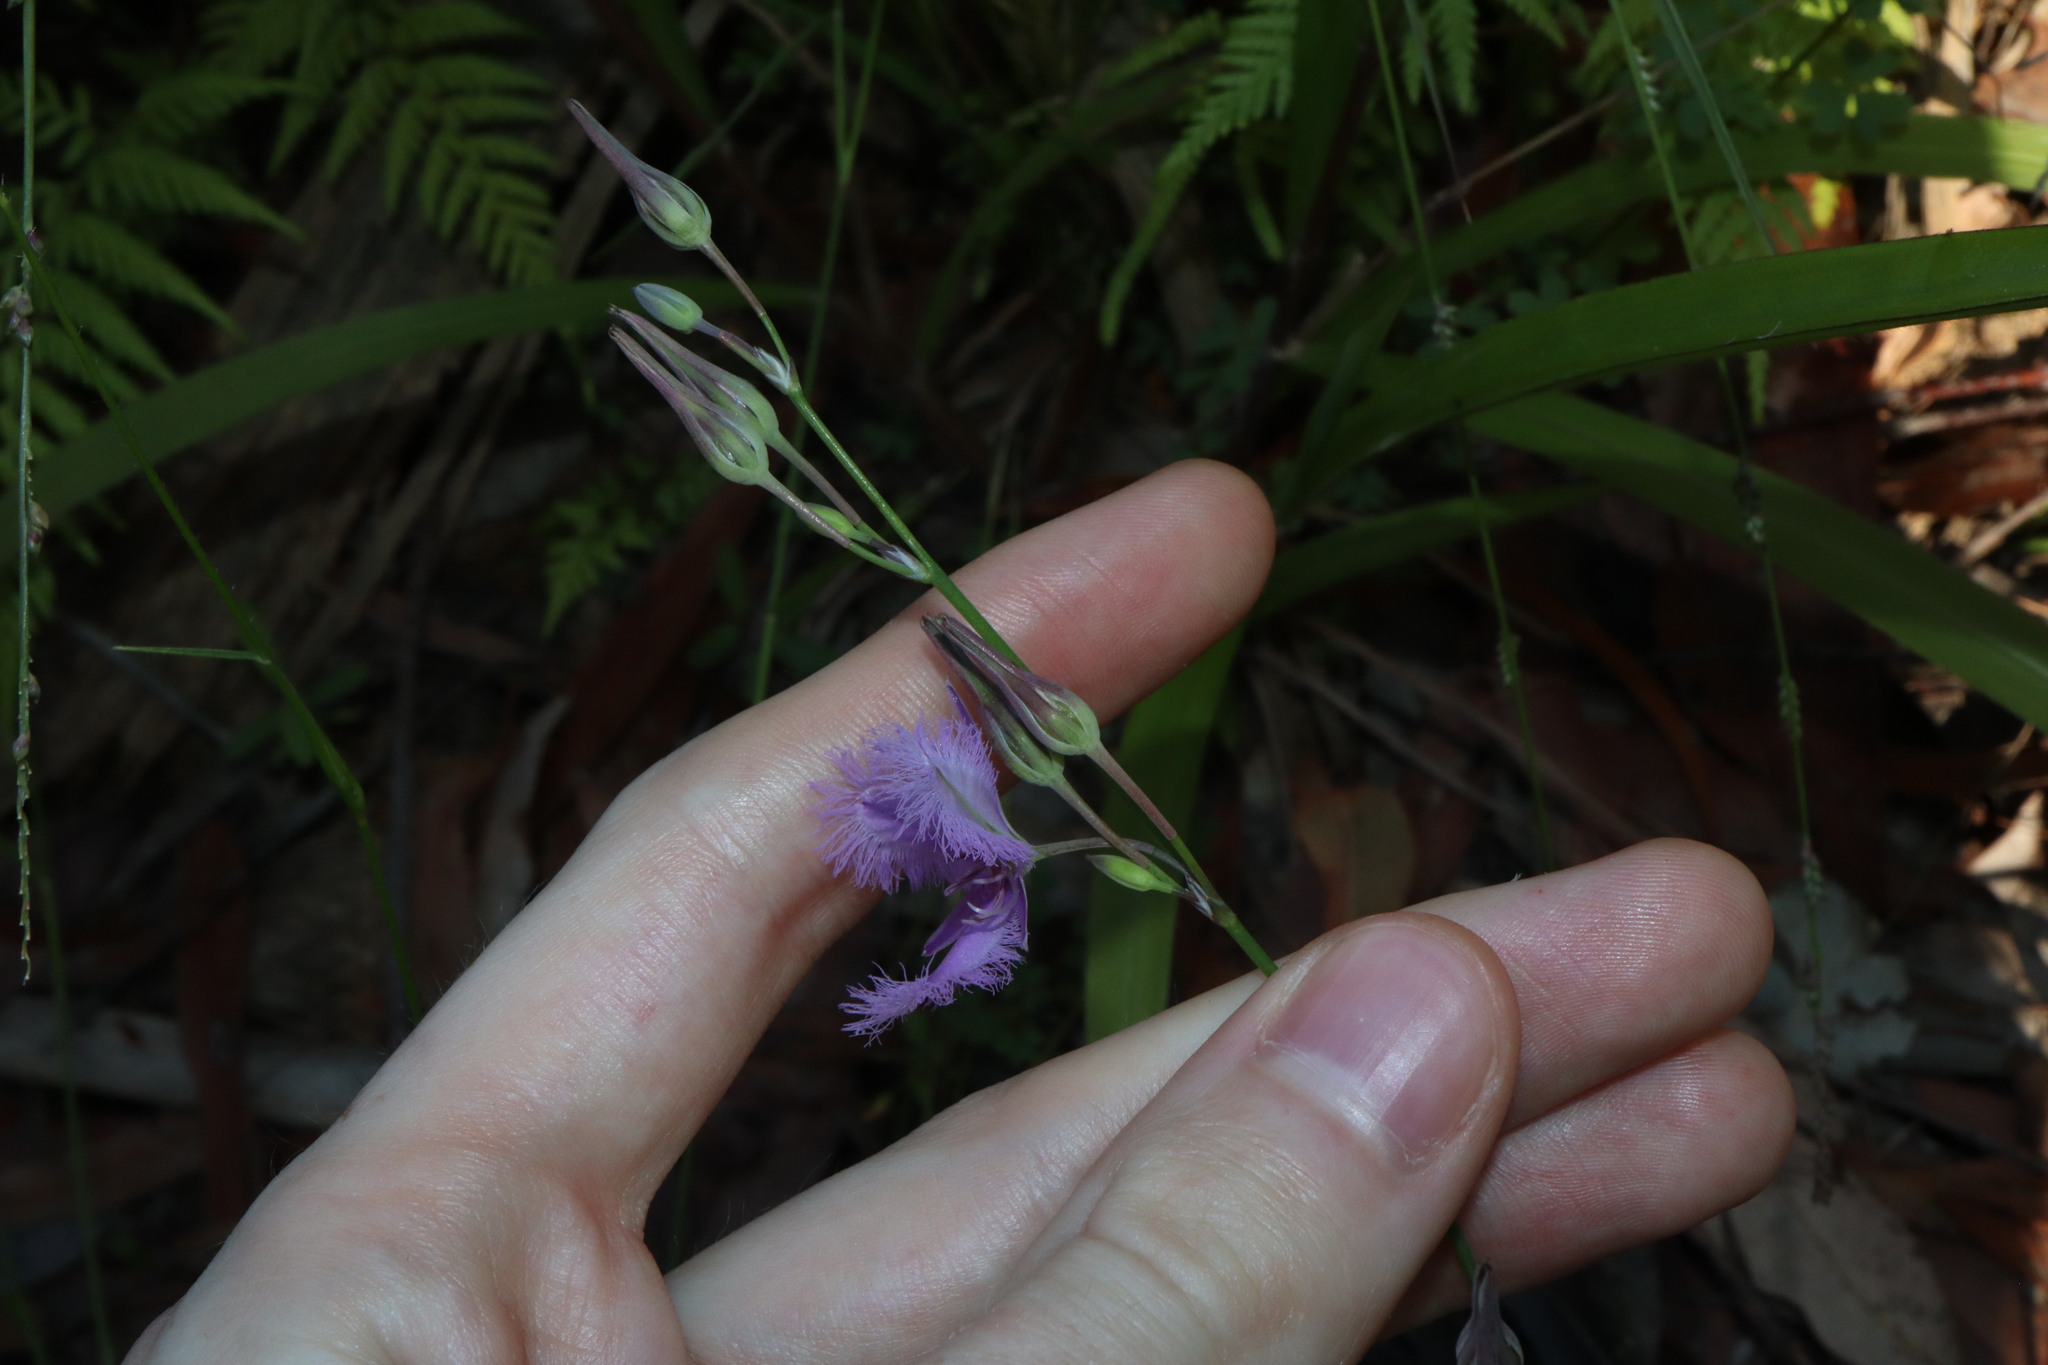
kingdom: Plantae
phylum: Tracheophyta
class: Liliopsida
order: Asparagales
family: Asparagaceae
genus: Thysanotus
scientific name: Thysanotus tuberosus
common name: Common fringed-lily
